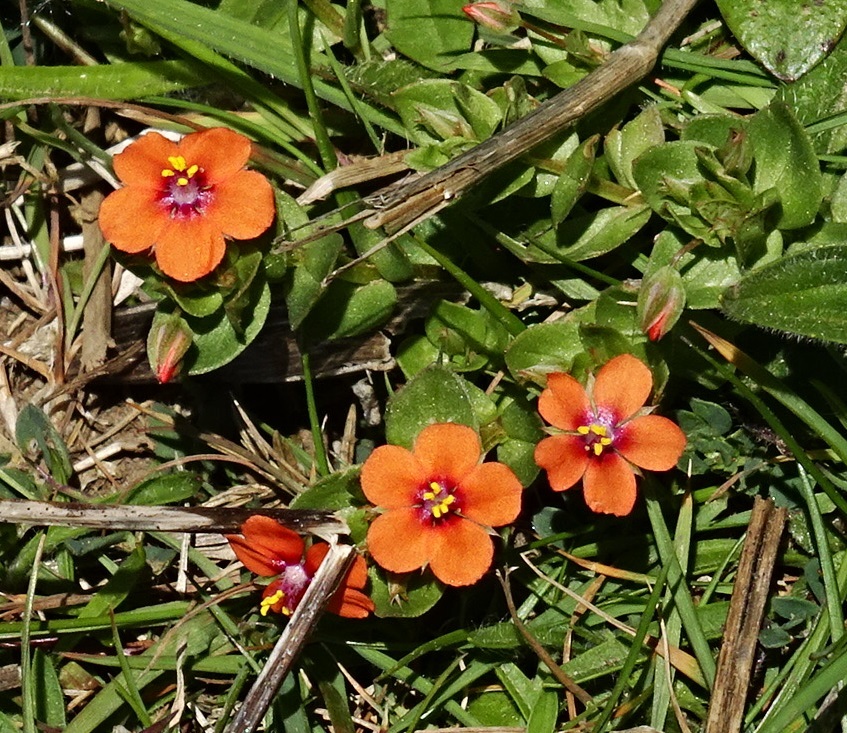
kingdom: Plantae
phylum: Tracheophyta
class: Magnoliopsida
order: Ericales
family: Primulaceae
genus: Lysimachia
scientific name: Lysimachia arvensis
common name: Scarlet pimpernel
